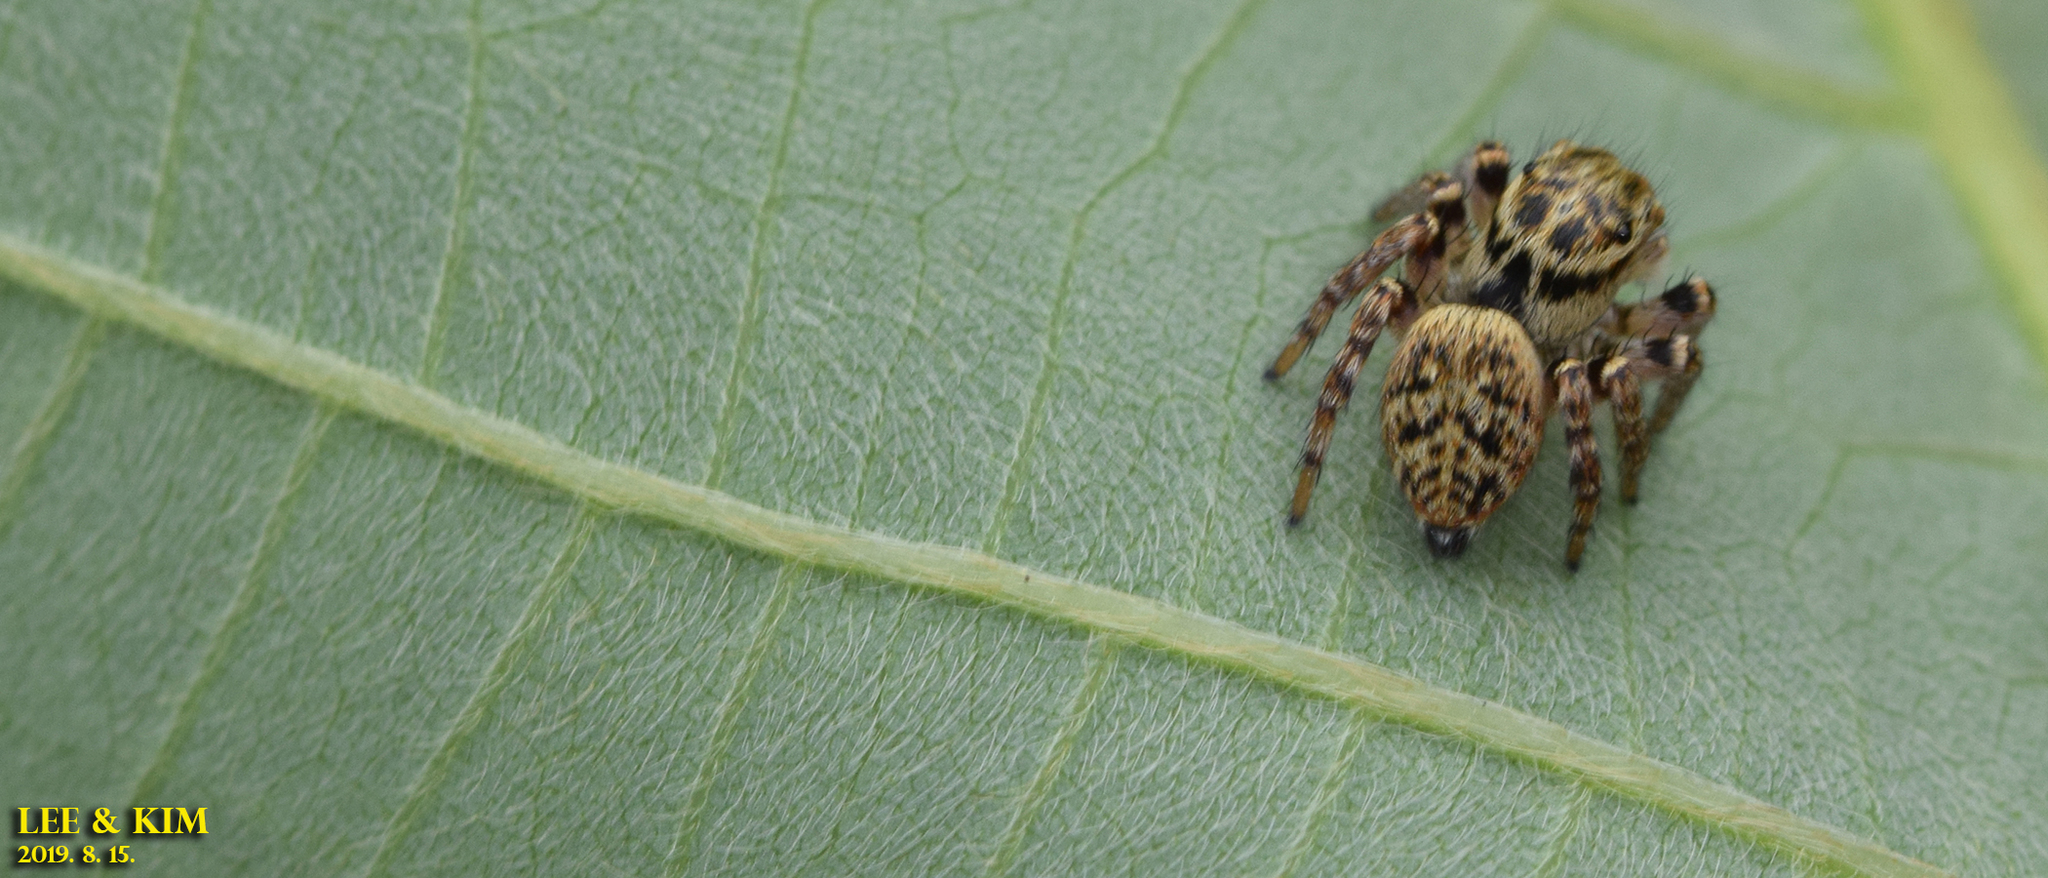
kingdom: Animalia
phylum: Arthropoda
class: Arachnida
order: Araneae
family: Salticidae
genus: Carrhotus
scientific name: Carrhotus xanthogramma
